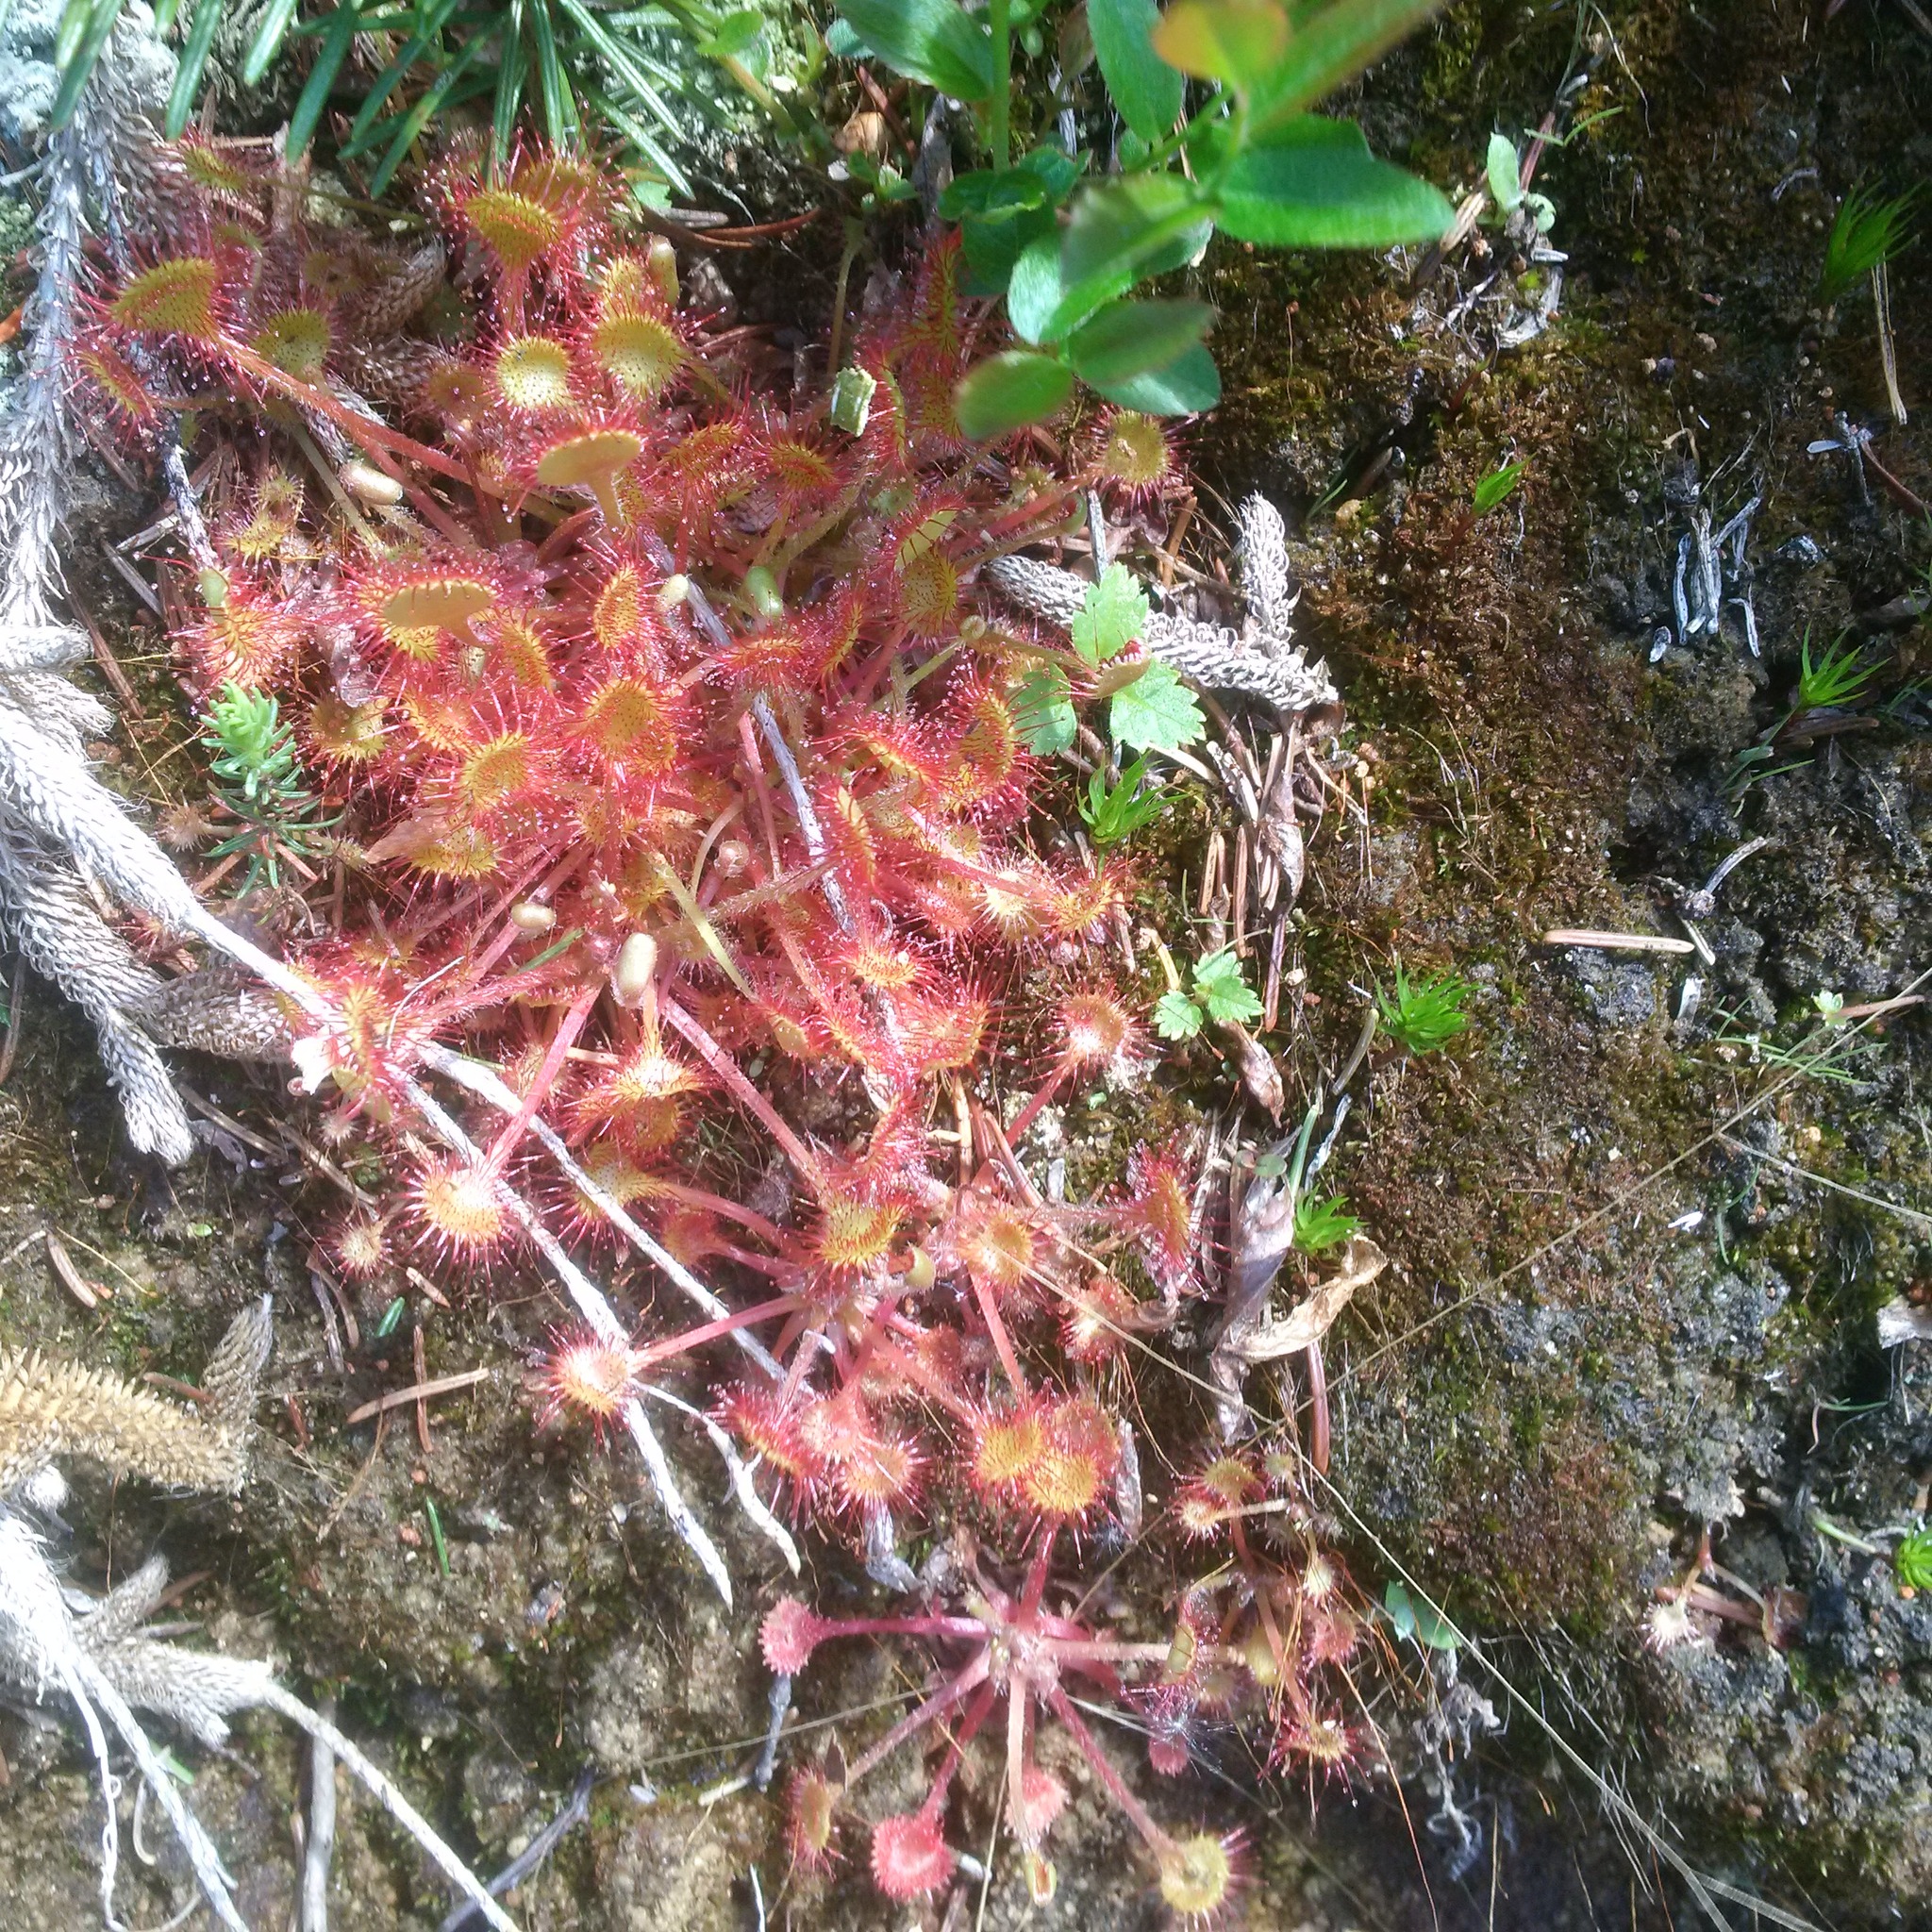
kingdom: Plantae
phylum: Tracheophyta
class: Magnoliopsida
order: Caryophyllales
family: Droseraceae
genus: Drosera
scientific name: Drosera rotundifolia
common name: Round-leaved sundew
